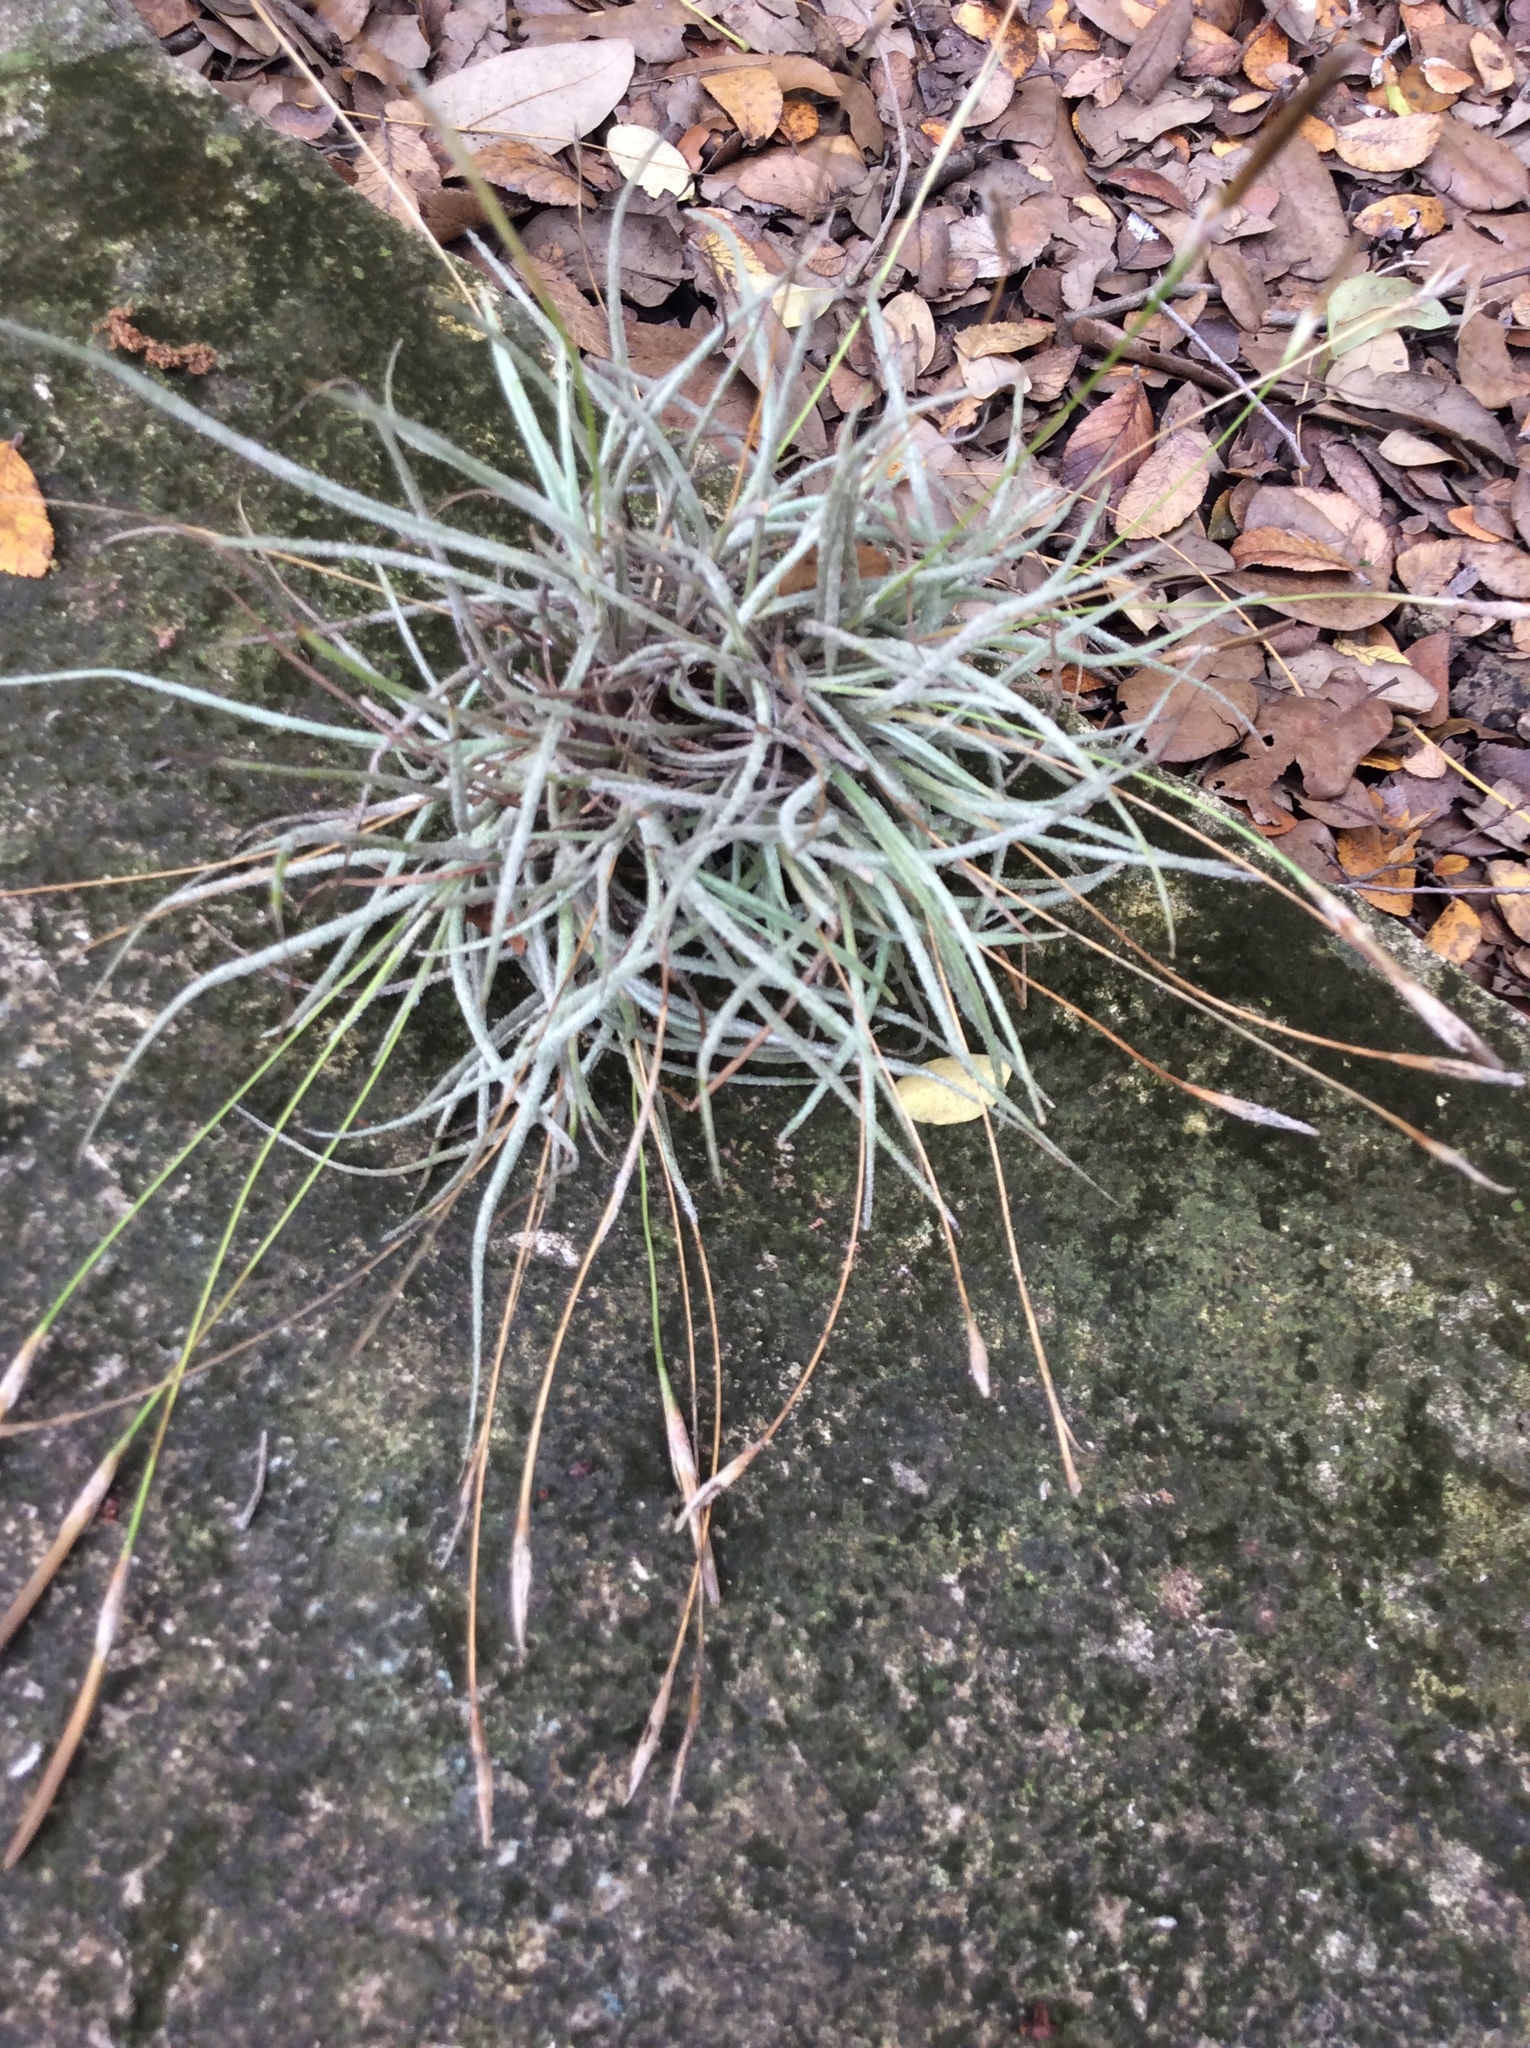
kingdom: Plantae
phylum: Tracheophyta
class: Liliopsida
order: Poales
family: Bromeliaceae
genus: Tillandsia
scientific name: Tillandsia recurvata
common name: Small ballmoss
